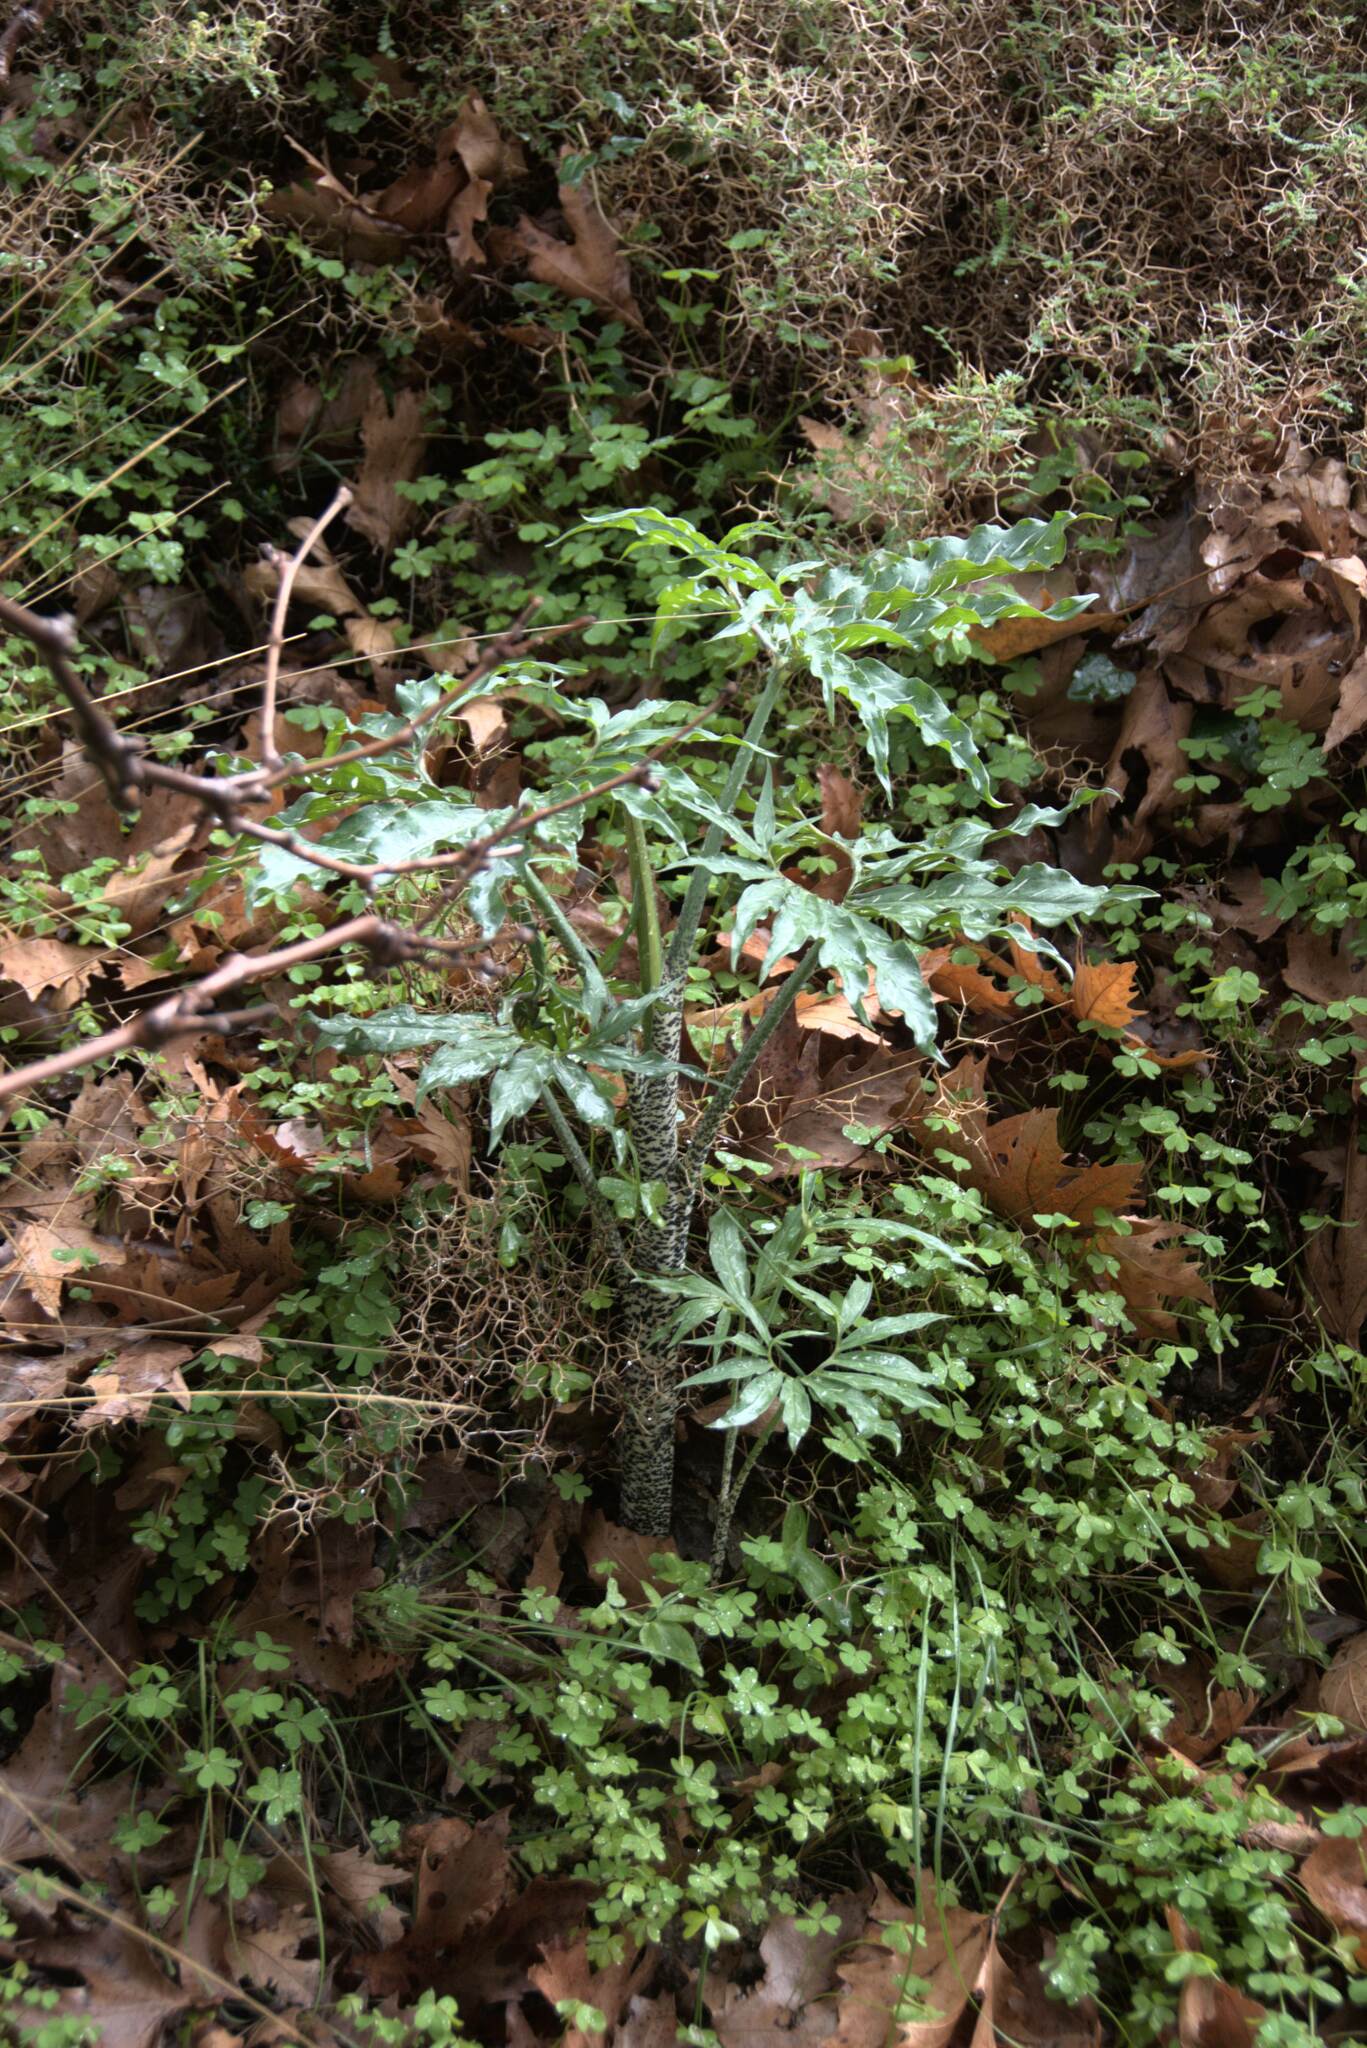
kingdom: Plantae
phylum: Tracheophyta
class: Liliopsida
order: Alismatales
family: Araceae
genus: Dracunculus
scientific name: Dracunculus vulgaris
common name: Dragon arum
